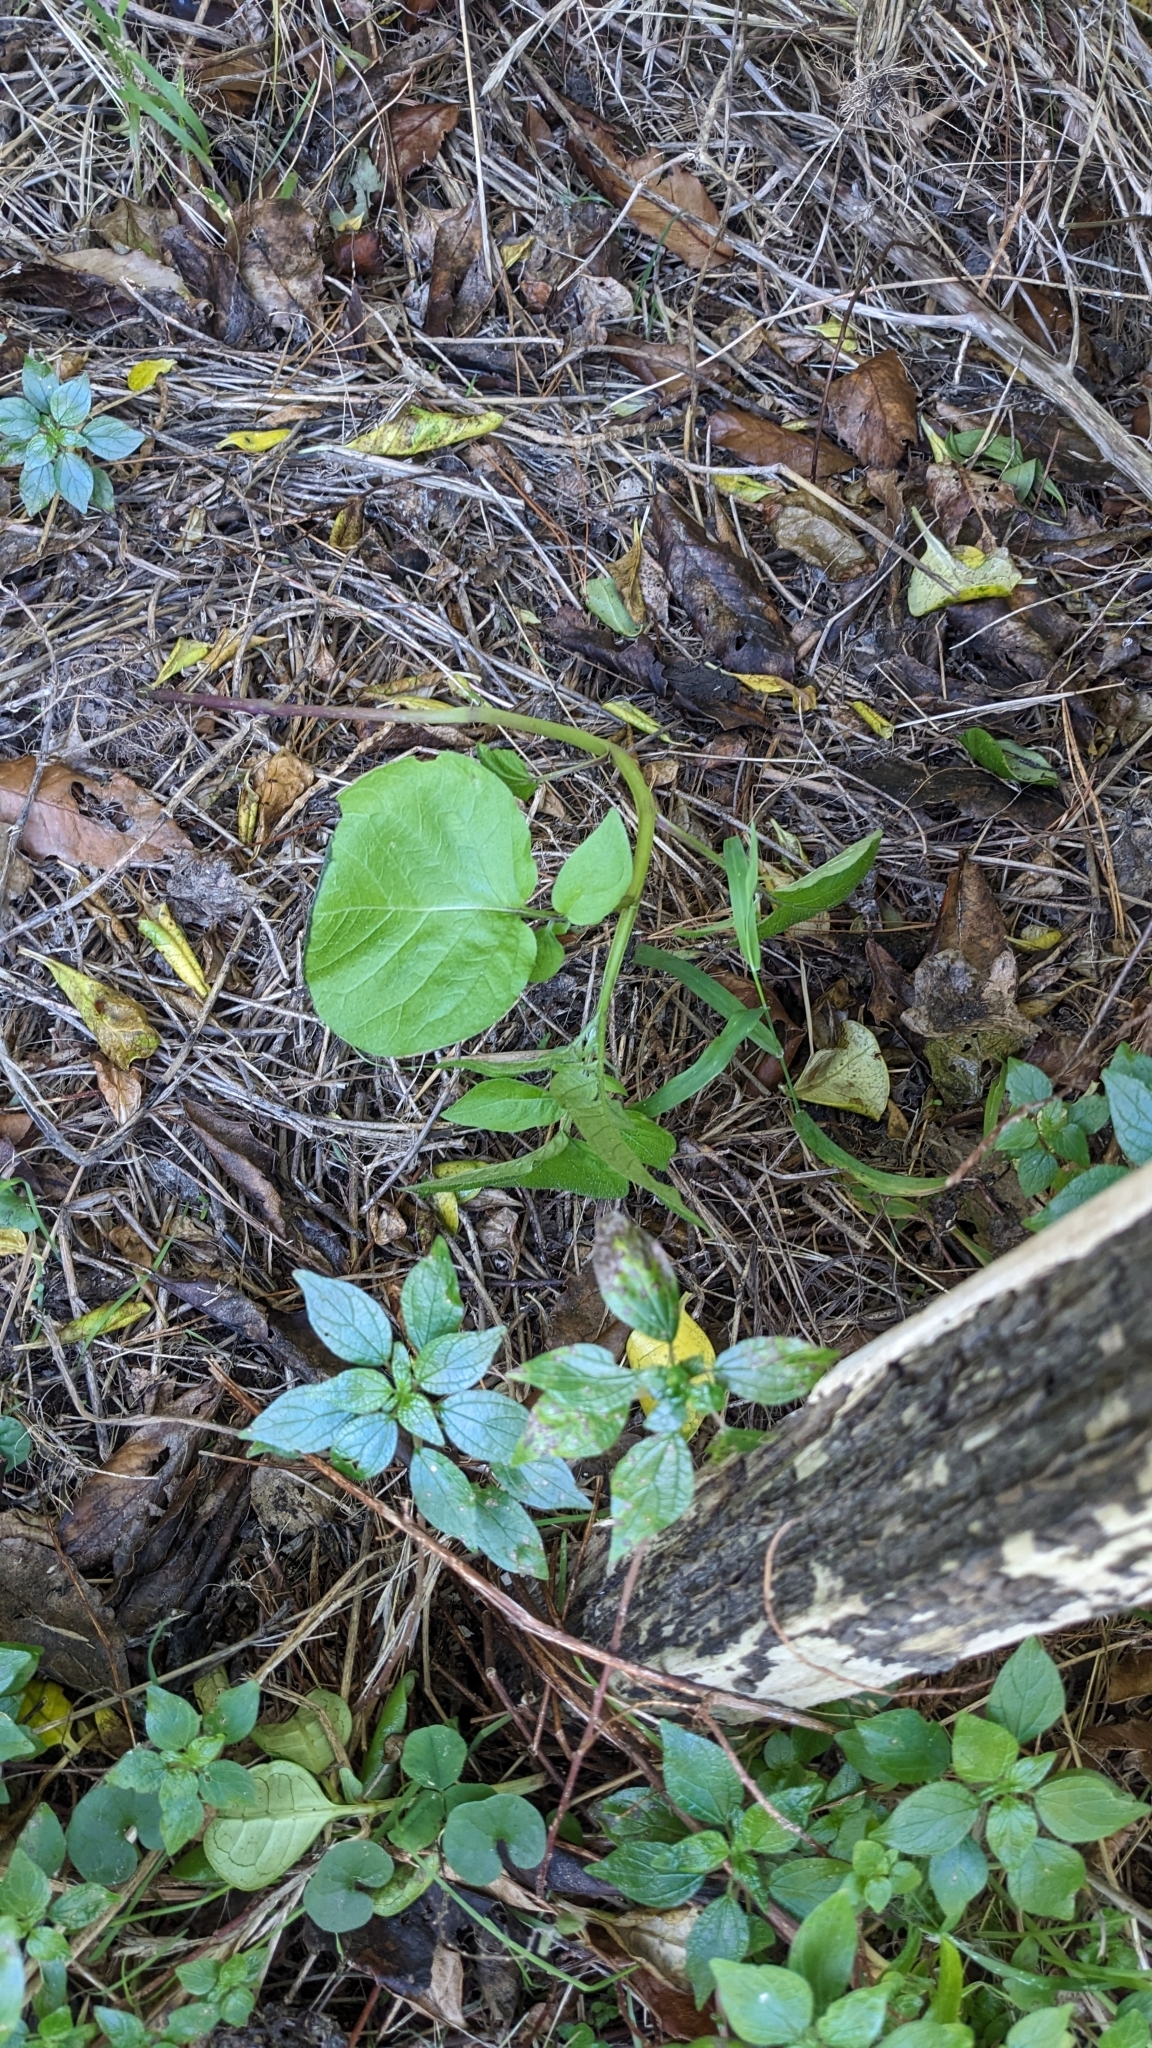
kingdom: Plantae
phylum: Tracheophyta
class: Magnoliopsida
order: Solanales
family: Solanaceae
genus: Solanum
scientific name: Solanum tuberosum
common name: Potato
